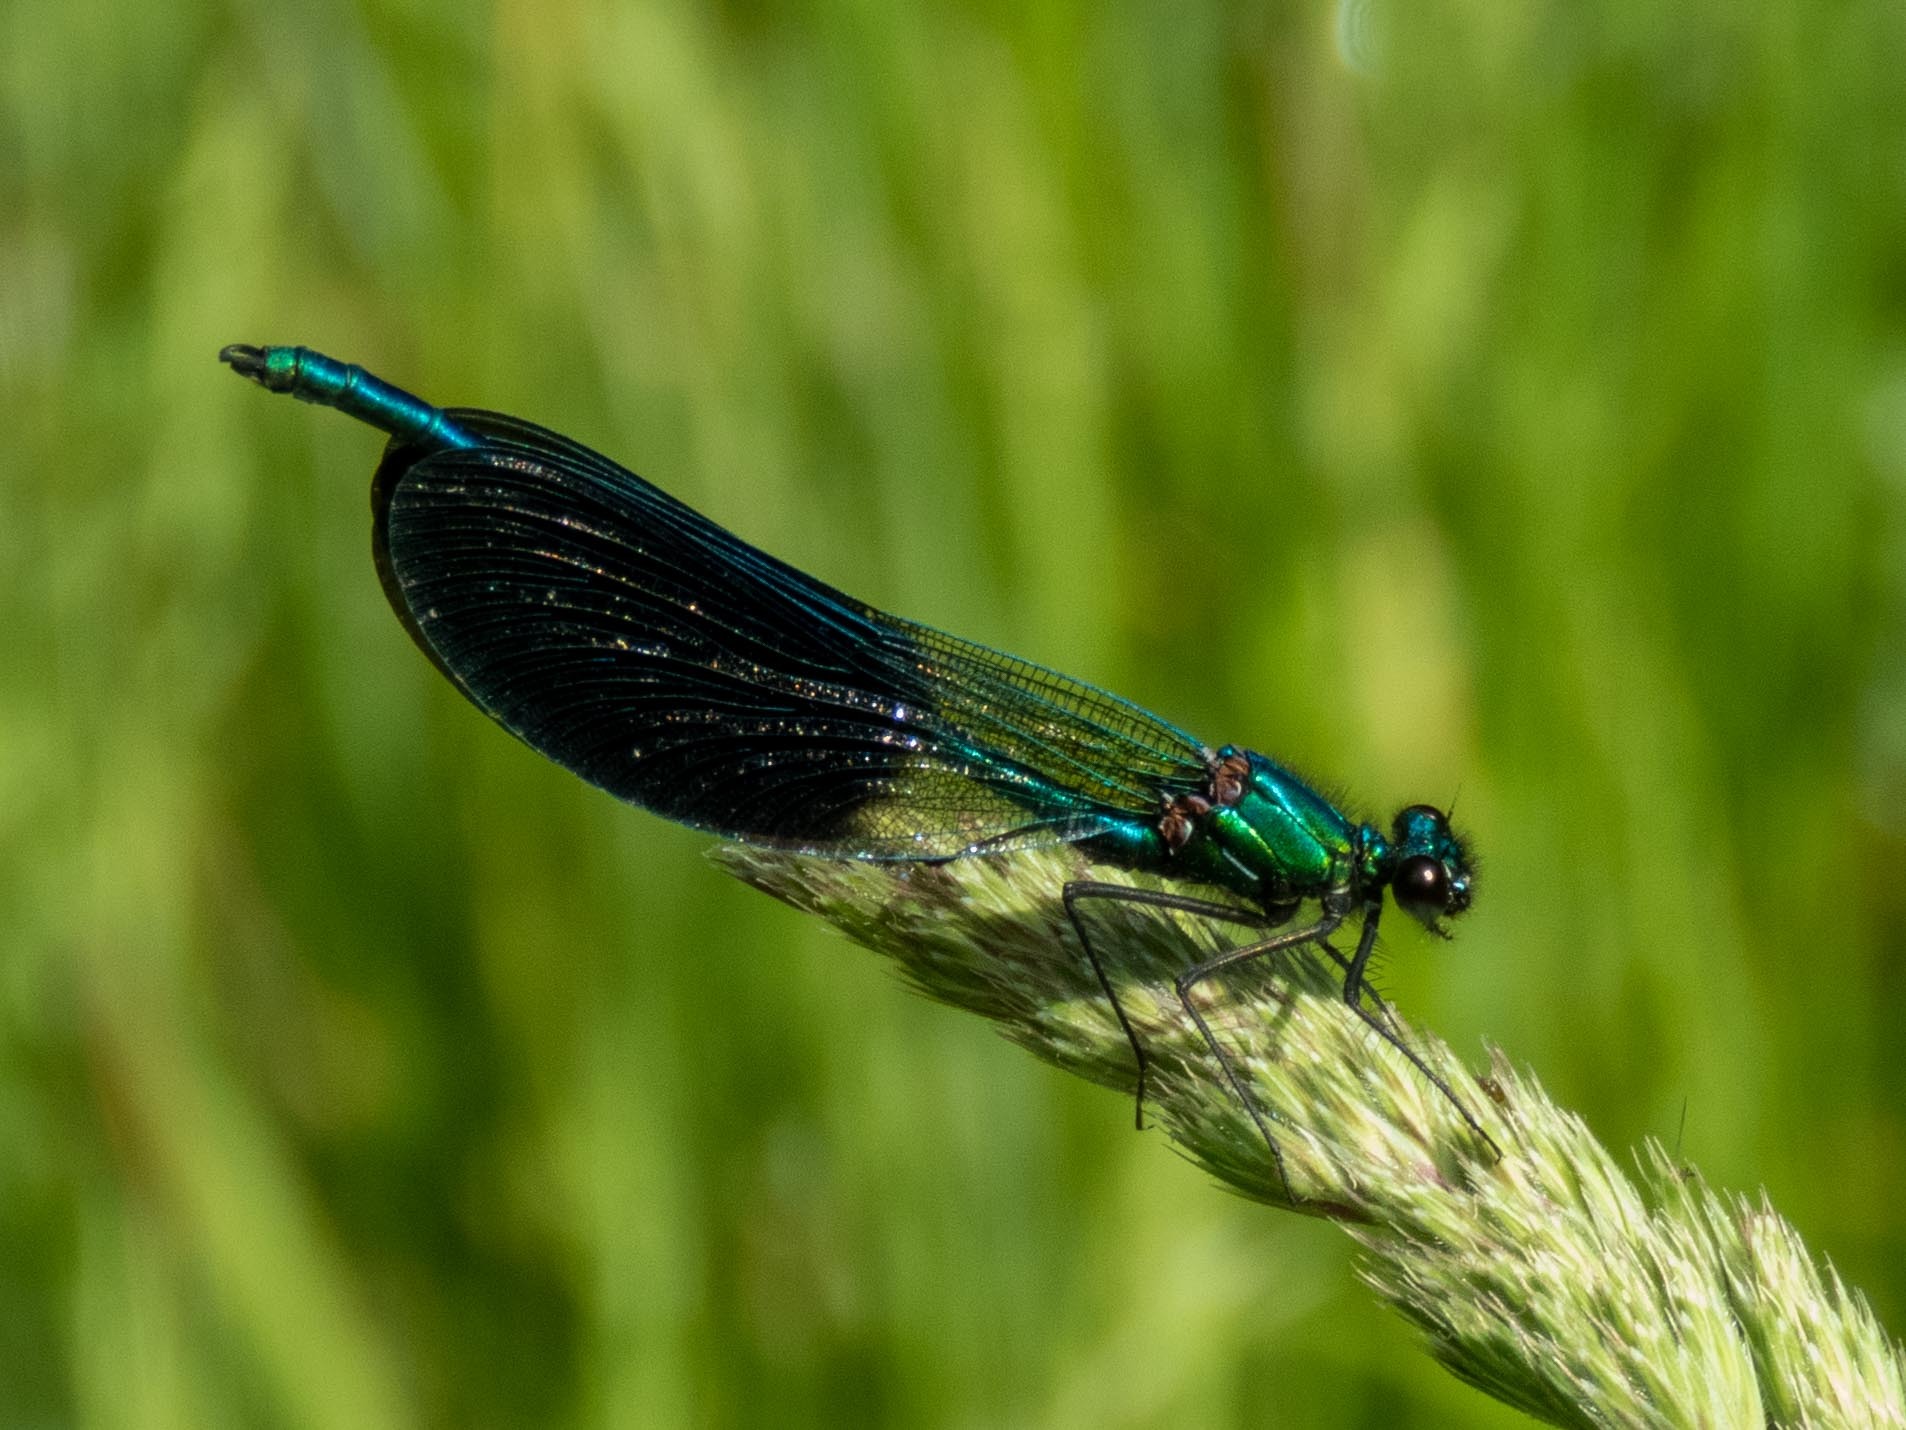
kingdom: Animalia
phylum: Arthropoda
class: Insecta
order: Odonata
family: Calopterygidae
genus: Calopteryx
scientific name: Calopteryx xanthostoma
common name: Western demoiselle
